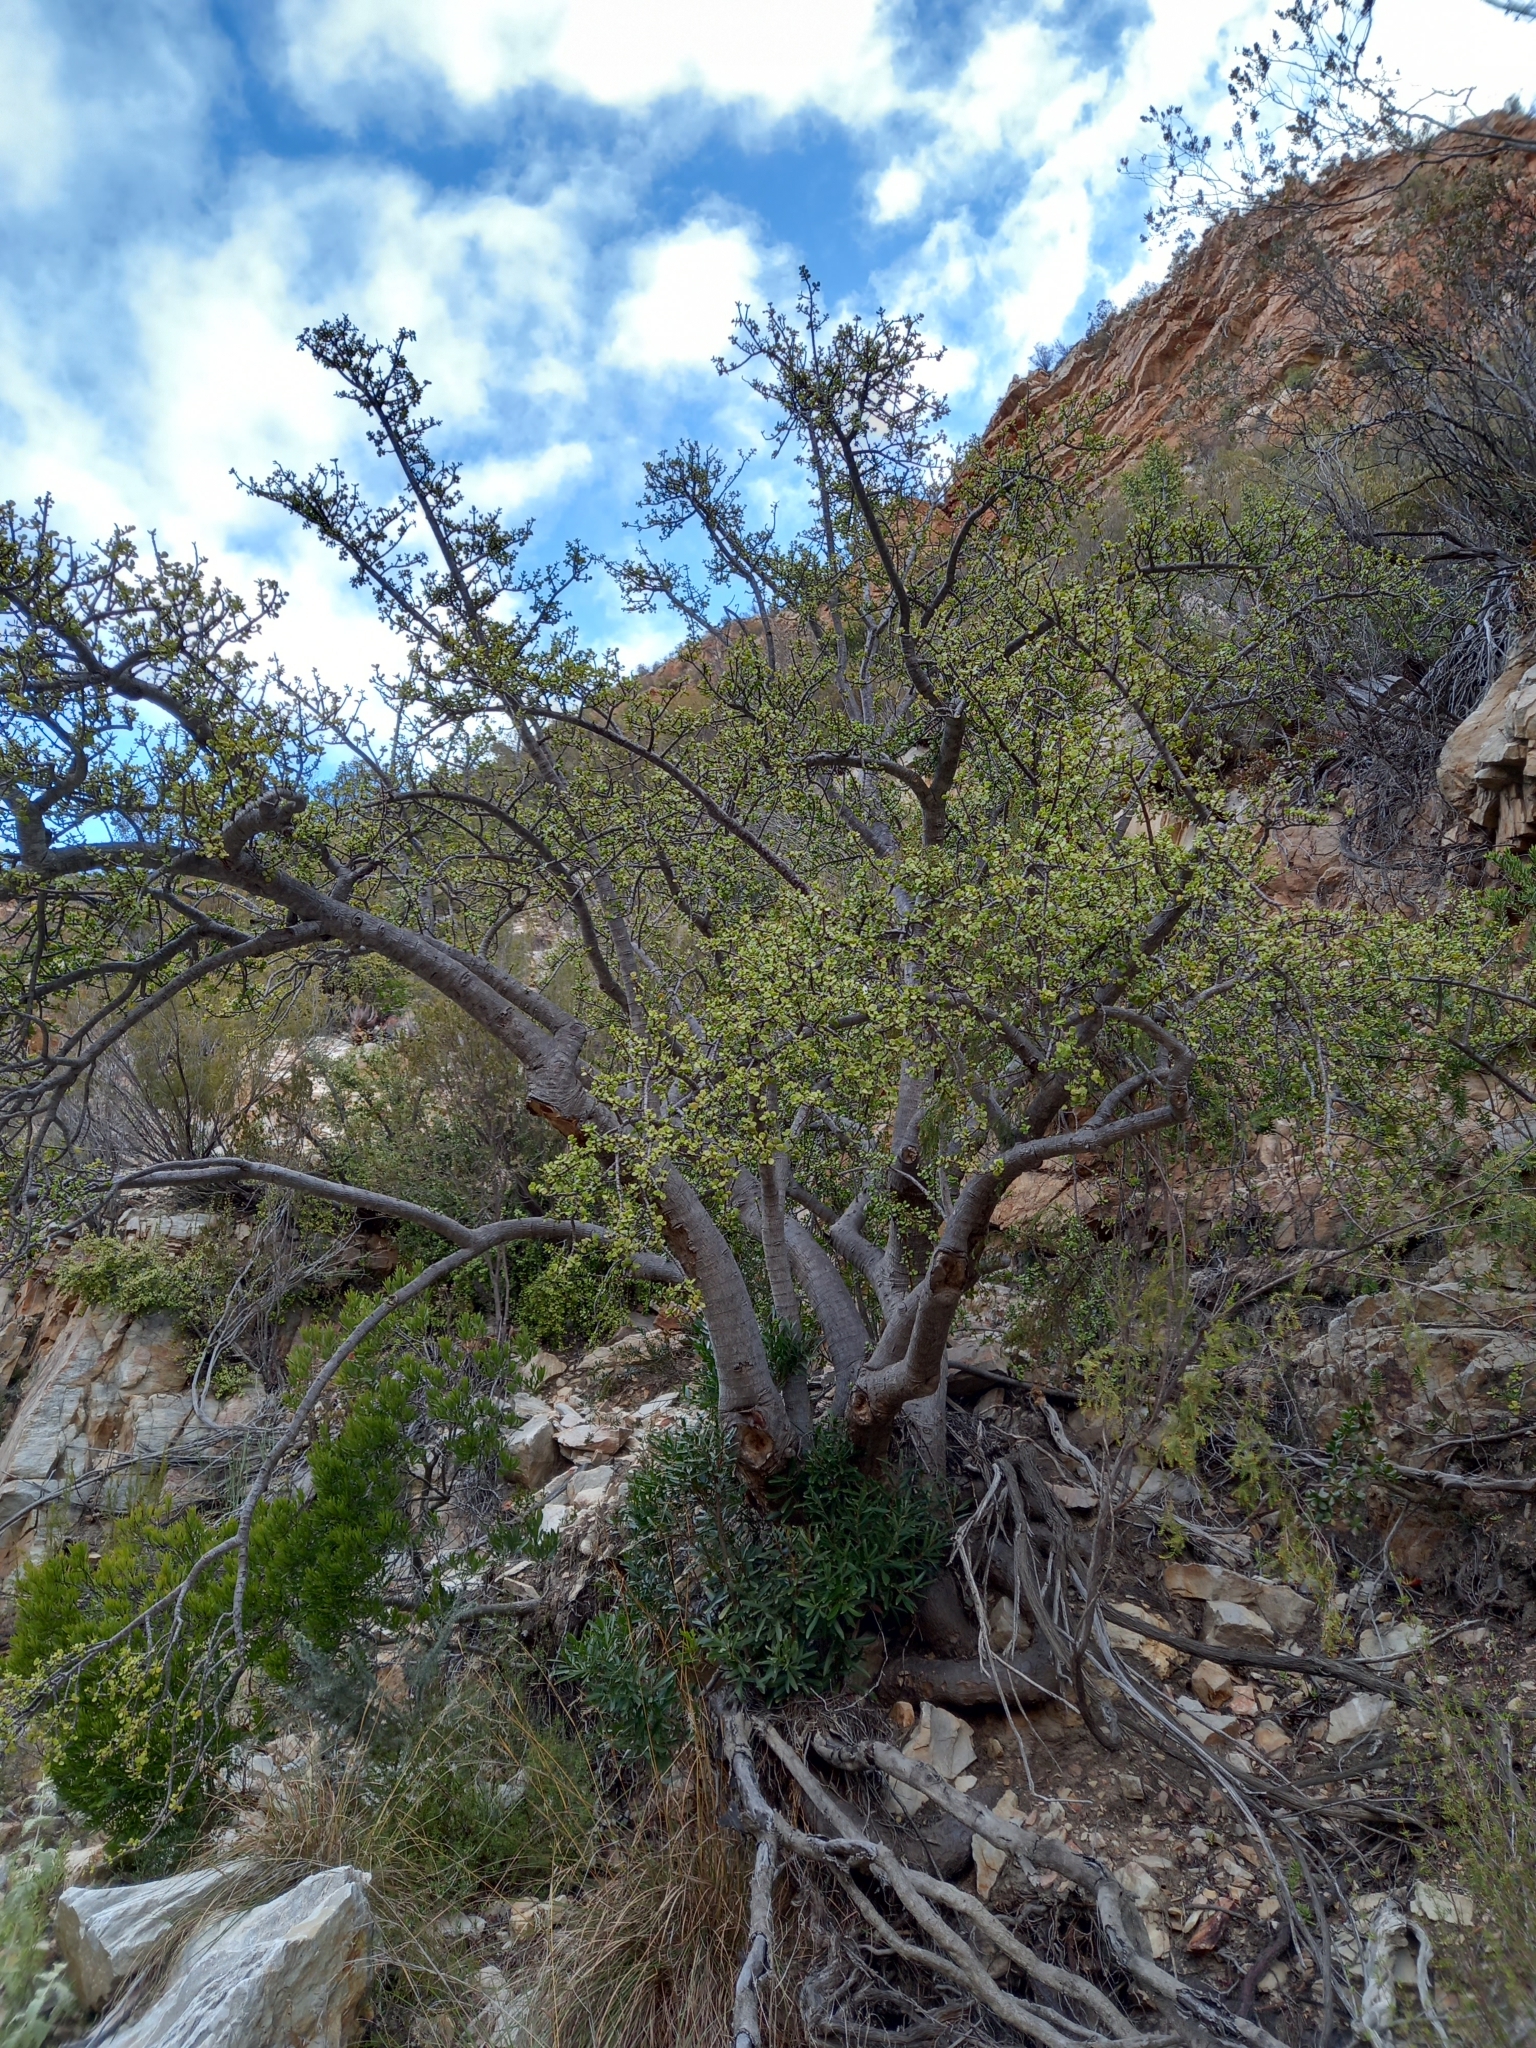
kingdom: Plantae
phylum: Tracheophyta
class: Magnoliopsida
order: Caryophyllales
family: Didiereaceae
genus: Portulacaria
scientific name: Portulacaria afra
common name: Elephant-bush
